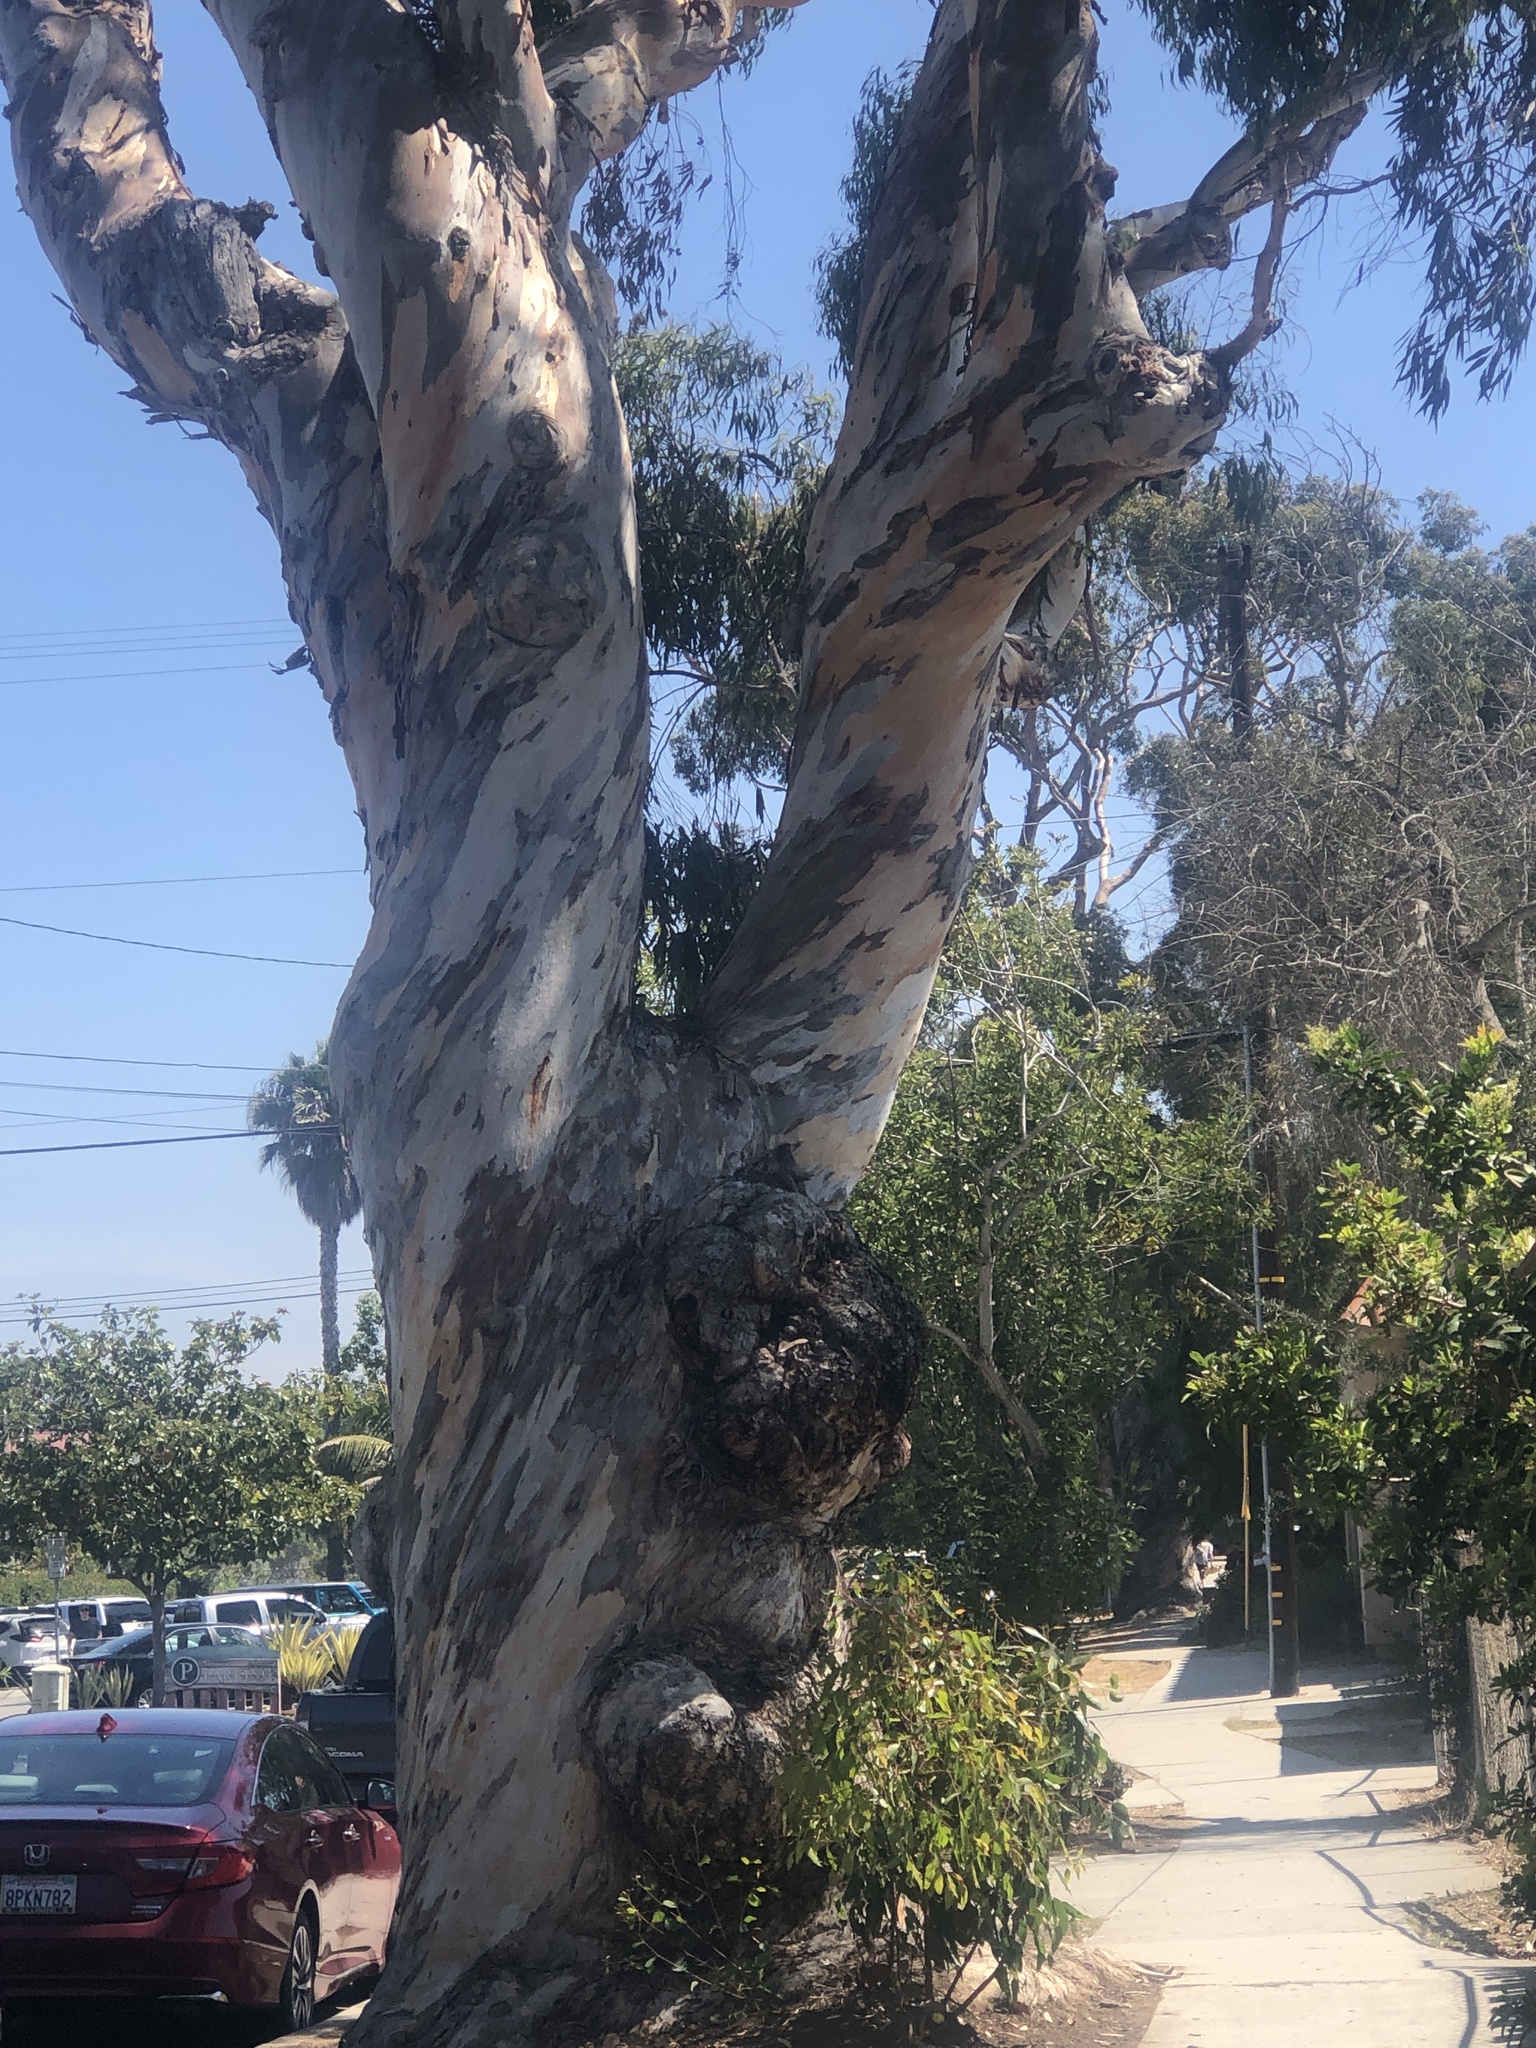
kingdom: Plantae
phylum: Tracheophyta
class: Magnoliopsida
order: Myrtales
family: Myrtaceae
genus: Eucalyptus
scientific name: Eucalyptus cladocalyx
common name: Sugargum
